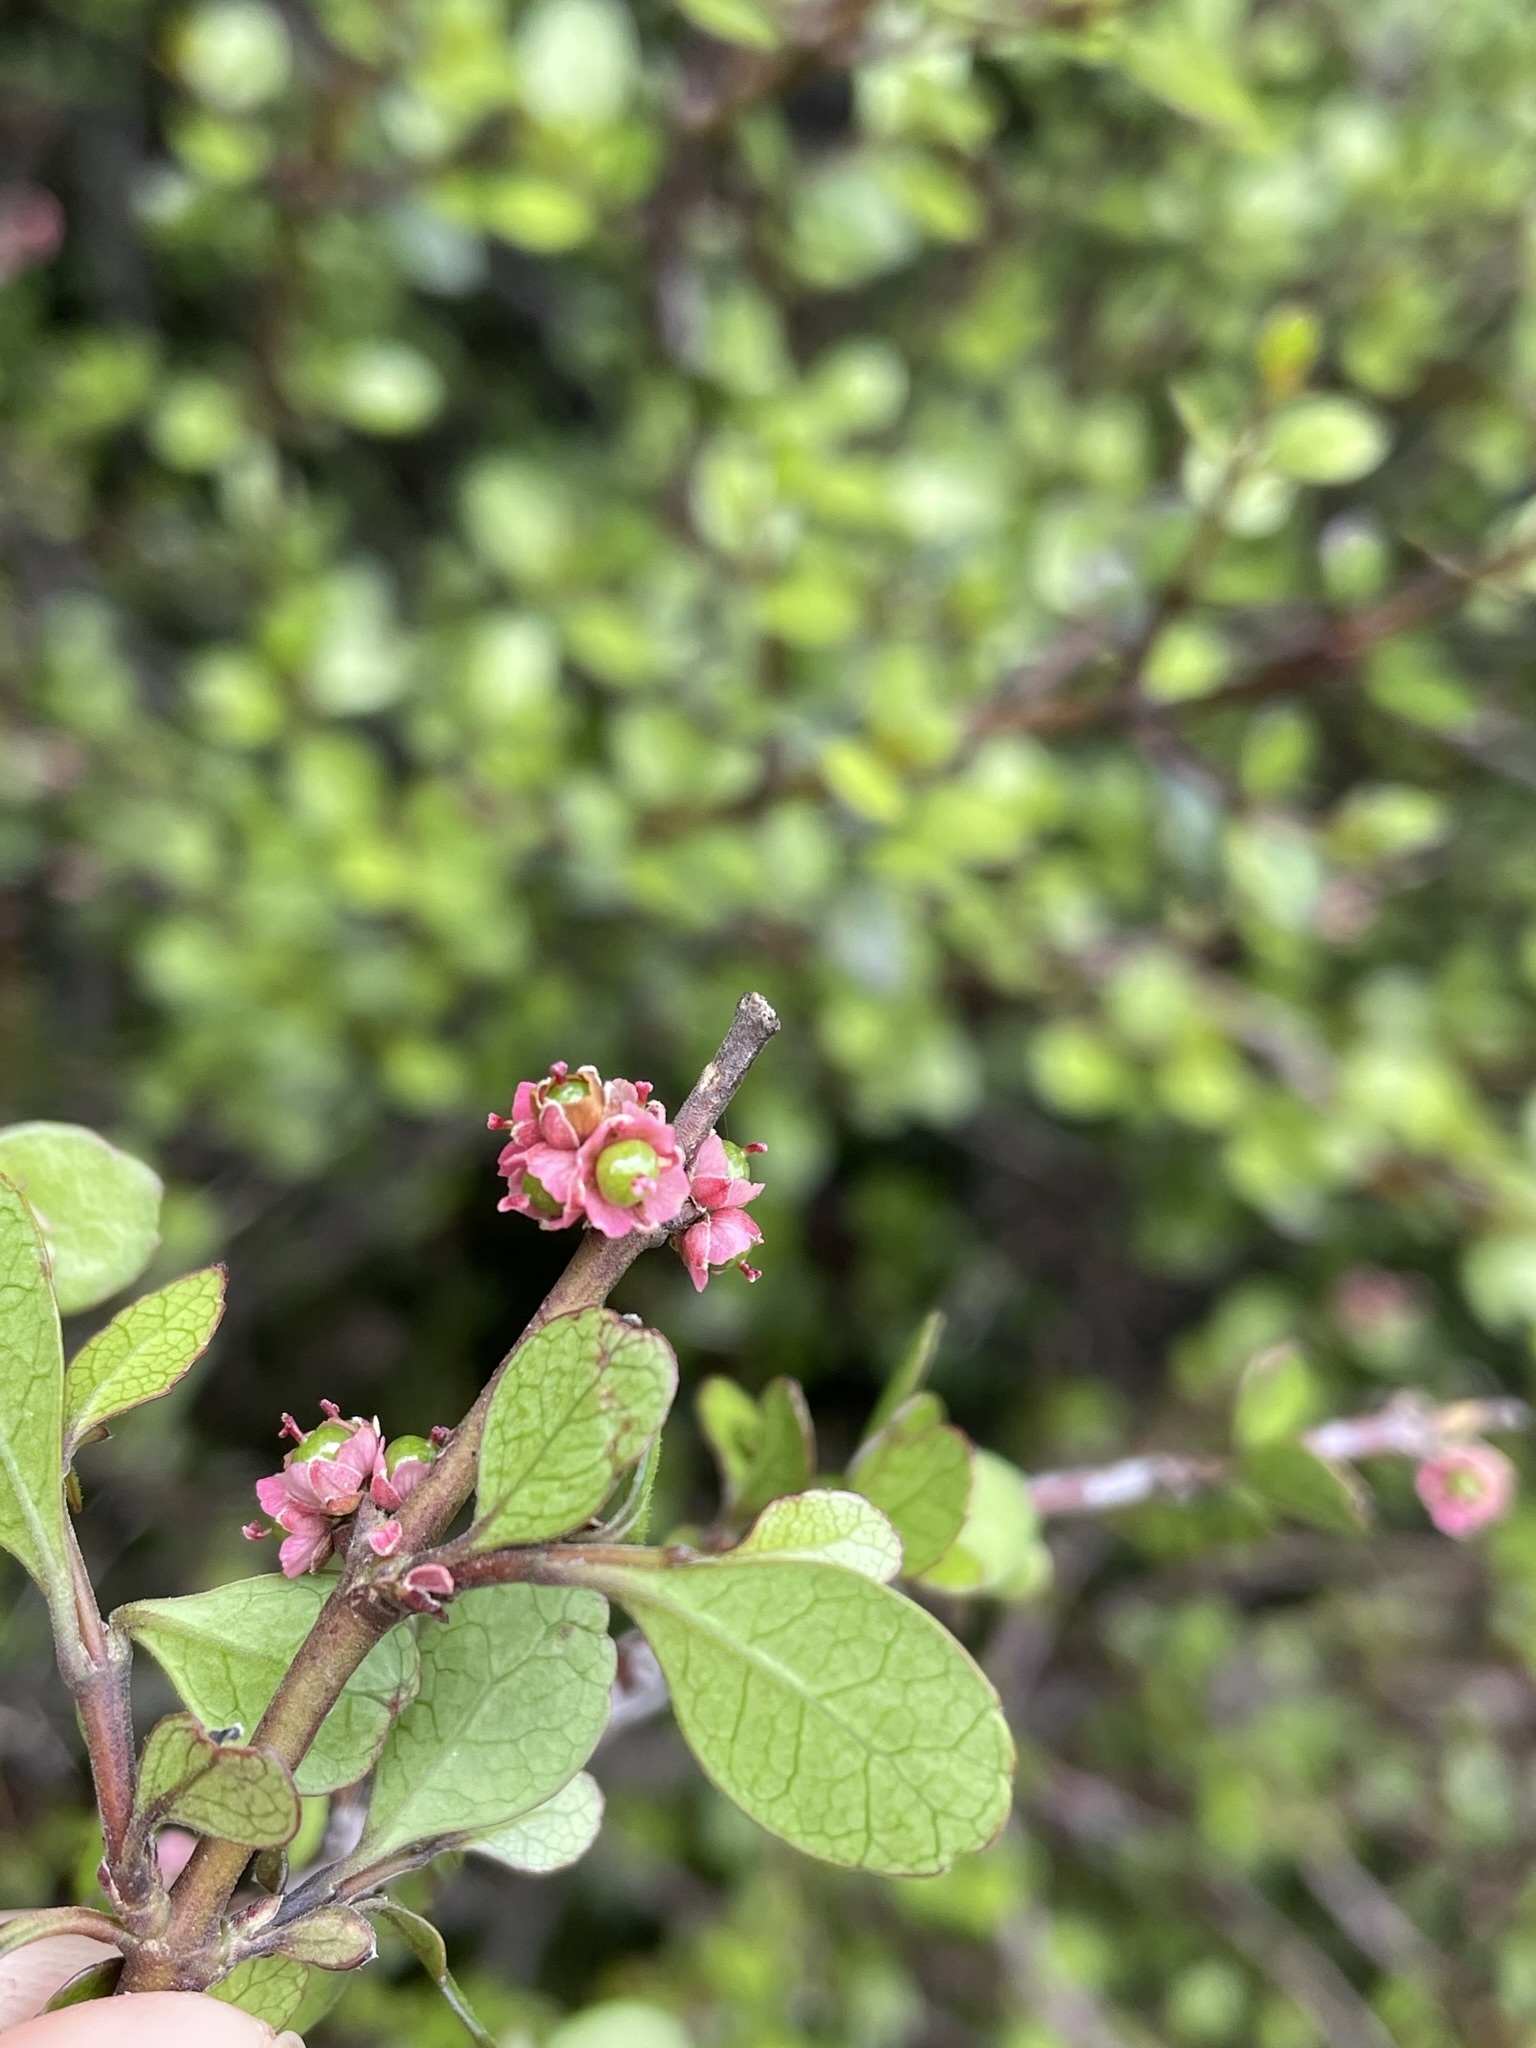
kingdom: Plantae
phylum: Tracheophyta
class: Magnoliopsida
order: Oxalidales
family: Elaeocarpaceae
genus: Aristotelia
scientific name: Aristotelia fruticosa
